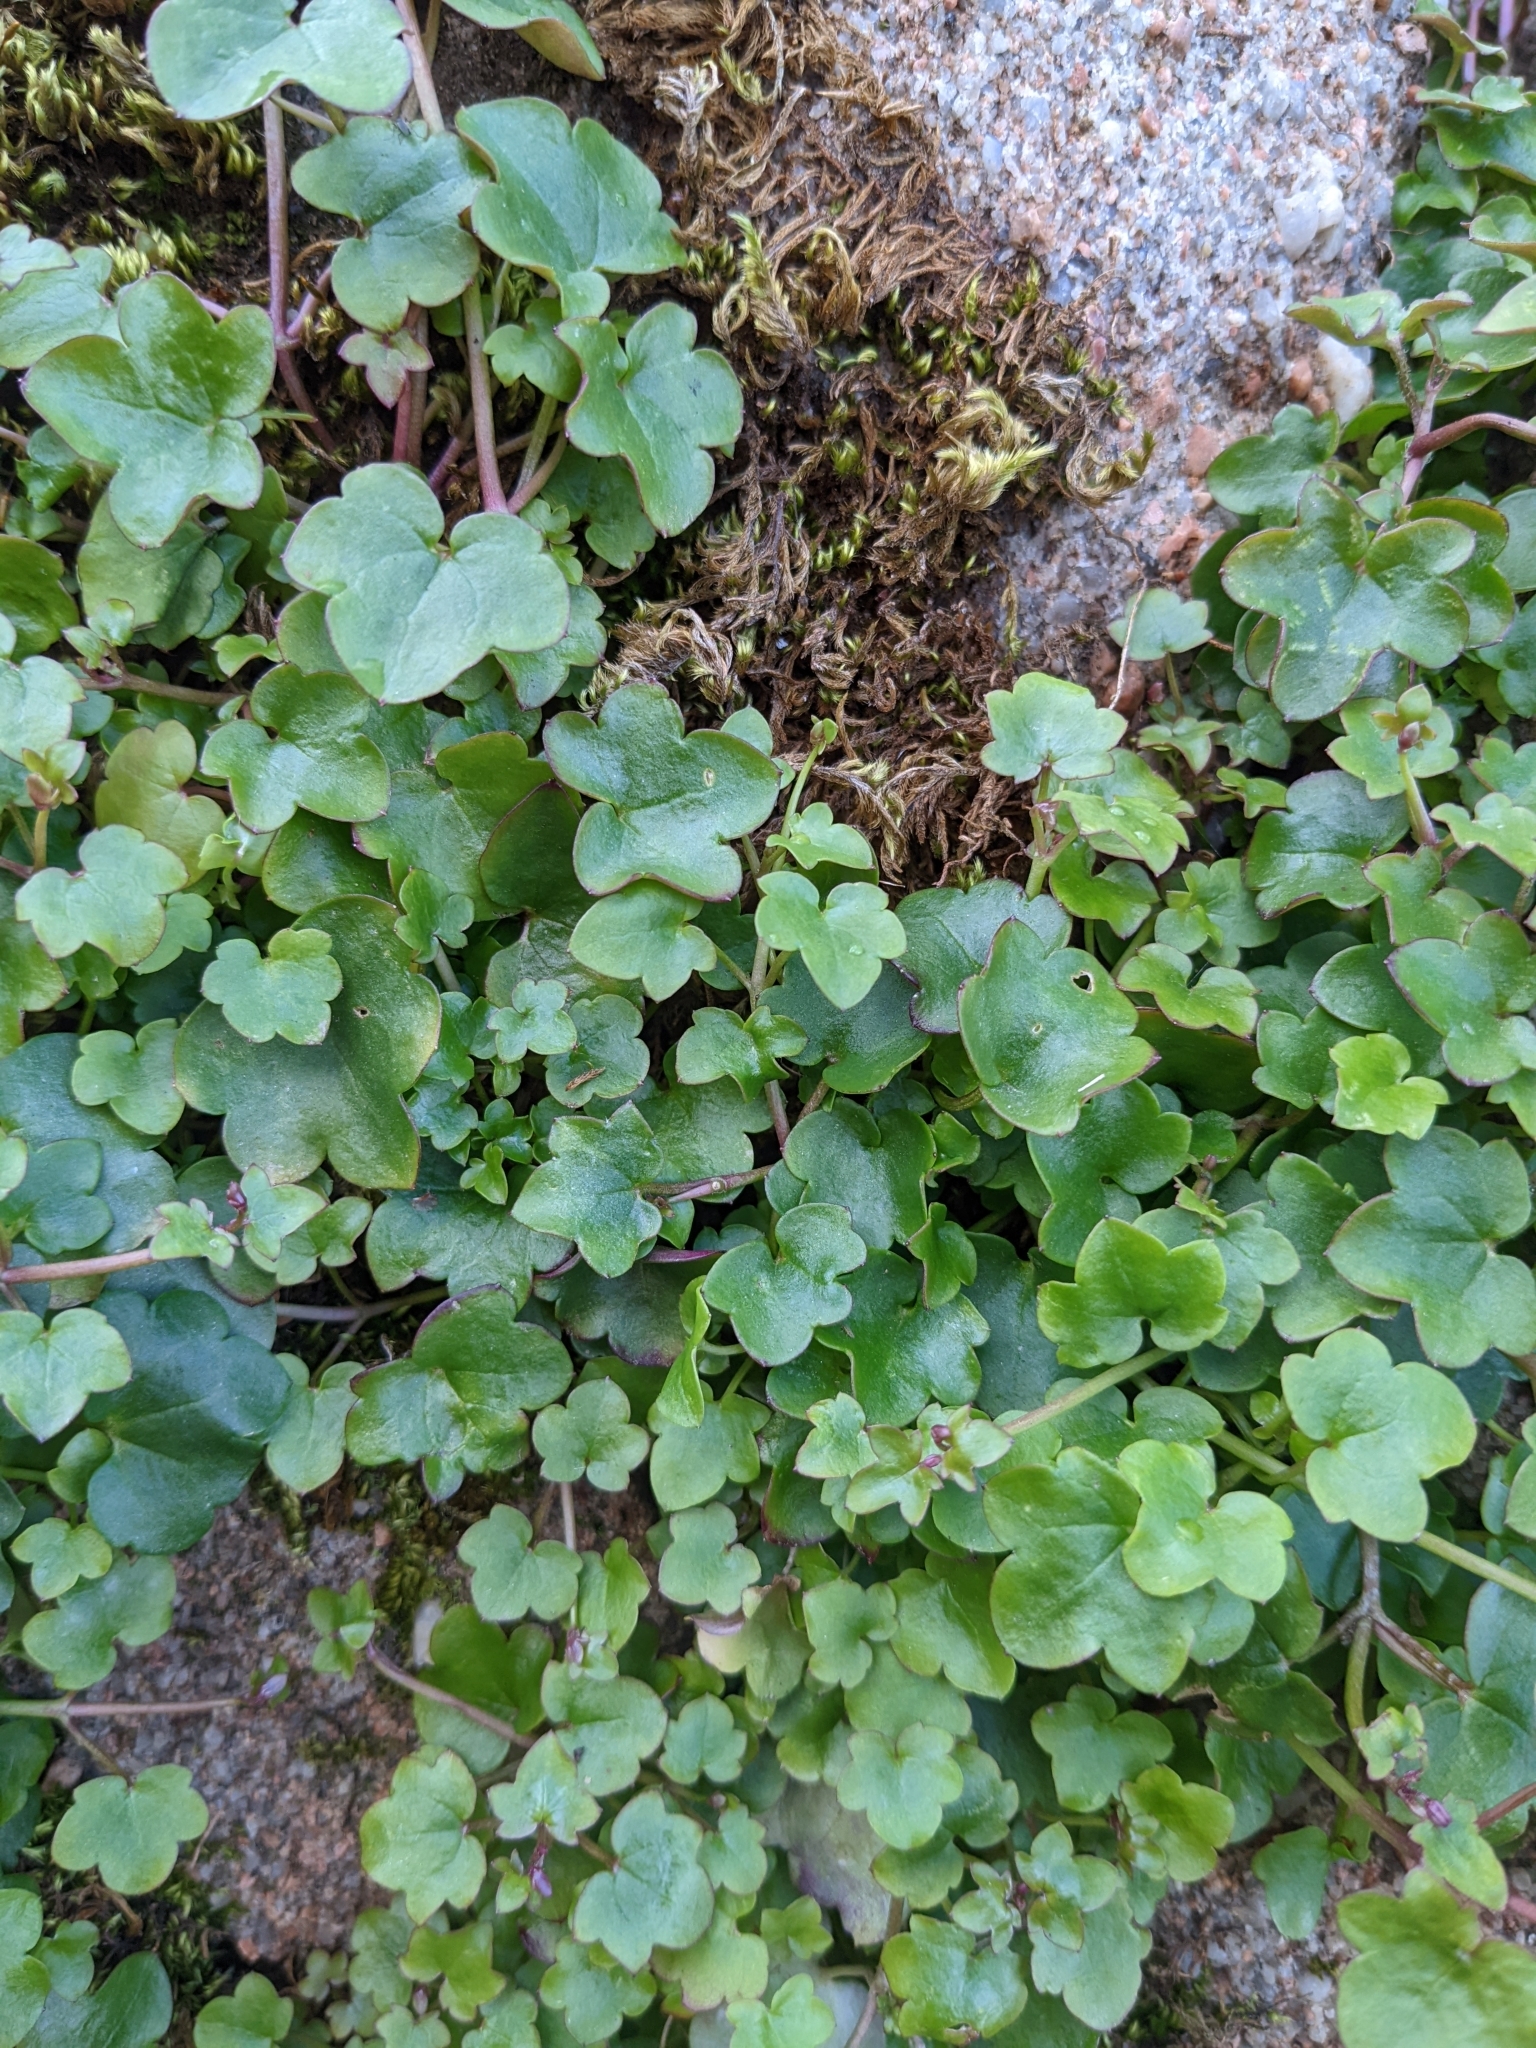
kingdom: Plantae
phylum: Tracheophyta
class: Magnoliopsida
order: Lamiales
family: Plantaginaceae
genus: Cymbalaria
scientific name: Cymbalaria muralis
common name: Ivy-leaved toadflax
